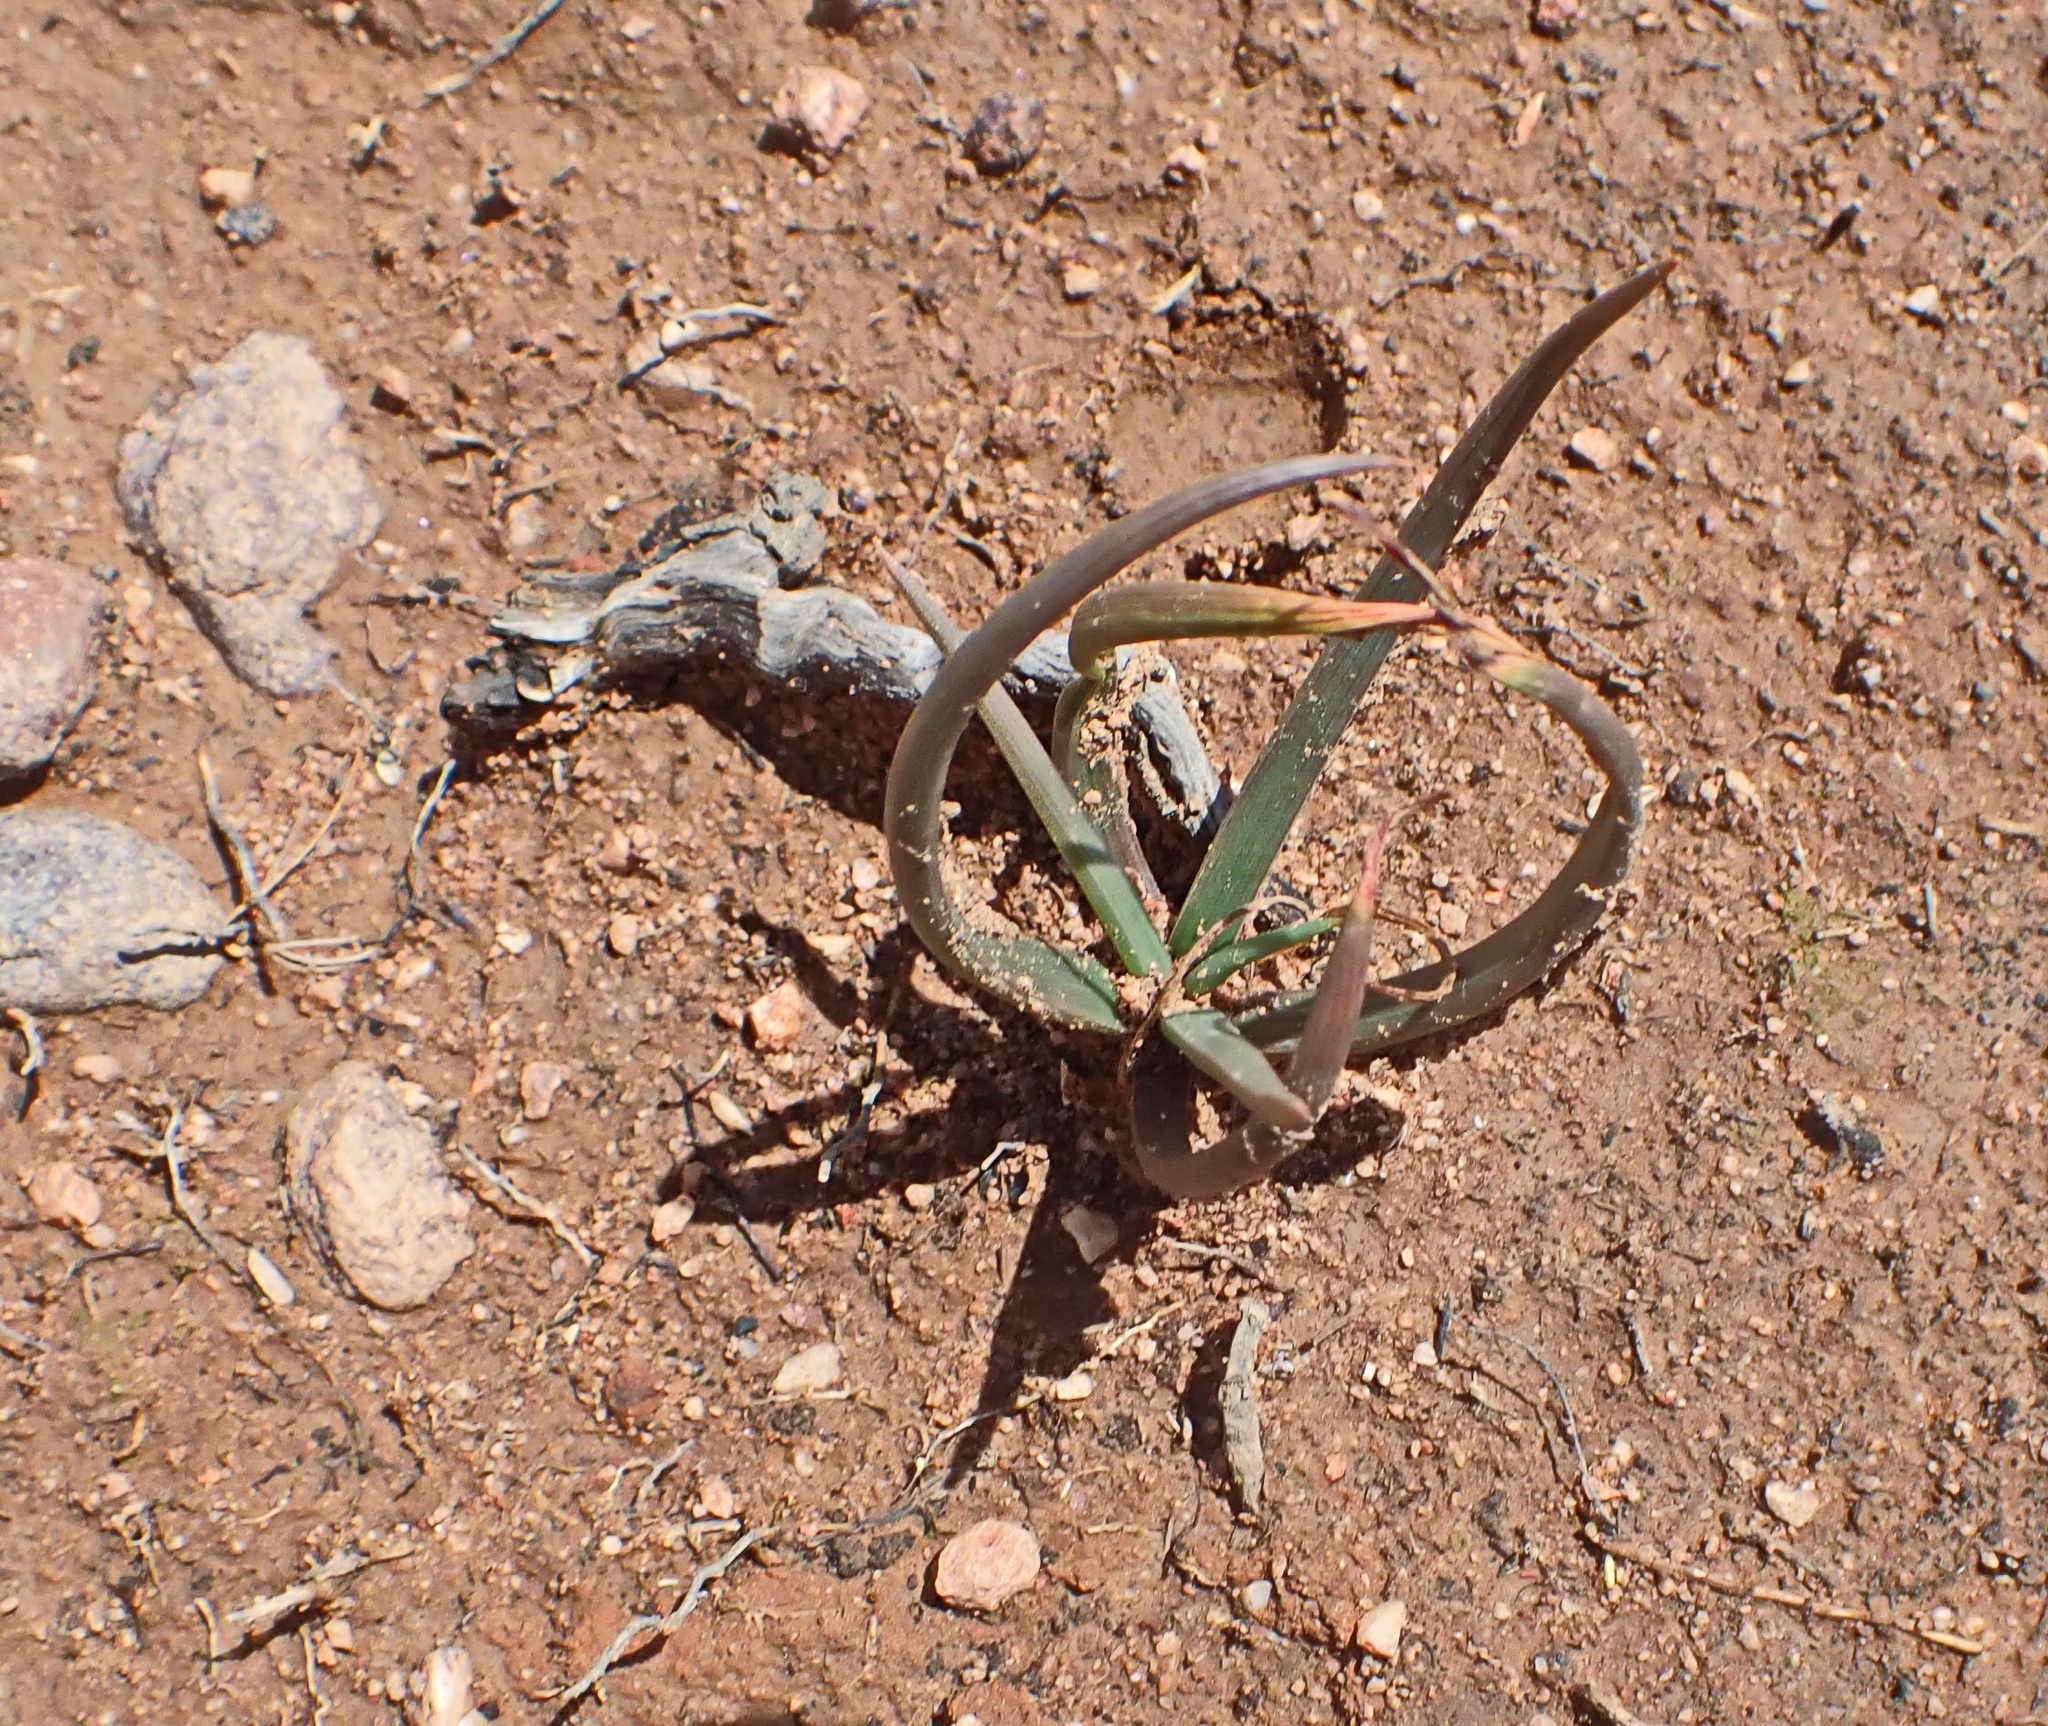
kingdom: Plantae
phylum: Tracheophyta
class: Liliopsida
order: Asparagales
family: Asphodelaceae
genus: Bulbine
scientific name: Bulbine frutescens
